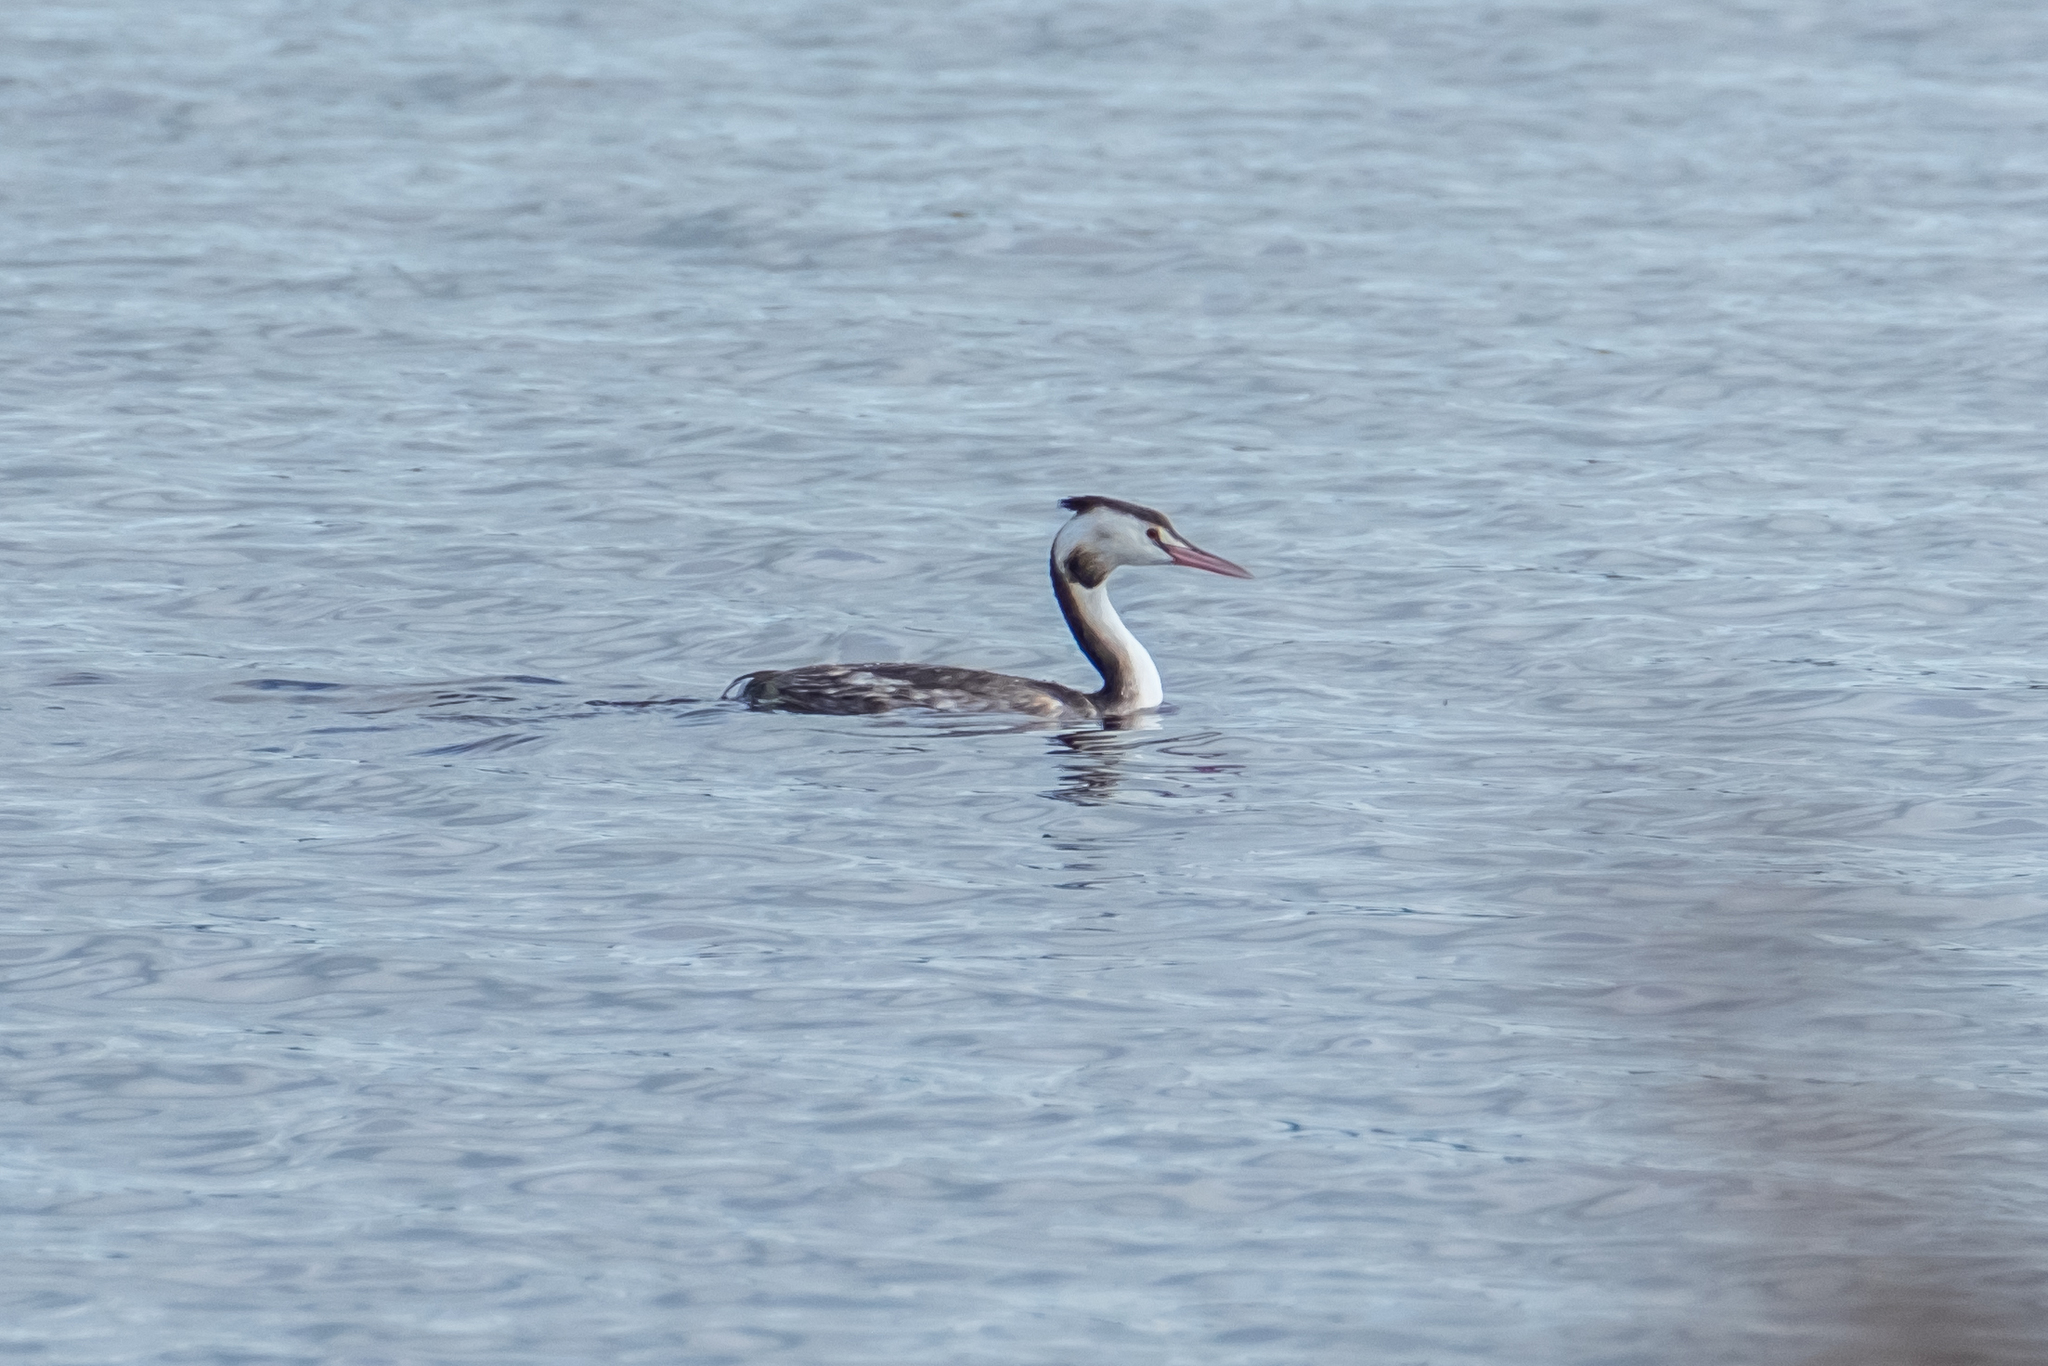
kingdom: Animalia
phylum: Chordata
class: Aves
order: Podicipediformes
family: Podicipedidae
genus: Podiceps
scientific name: Podiceps cristatus
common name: Great crested grebe
